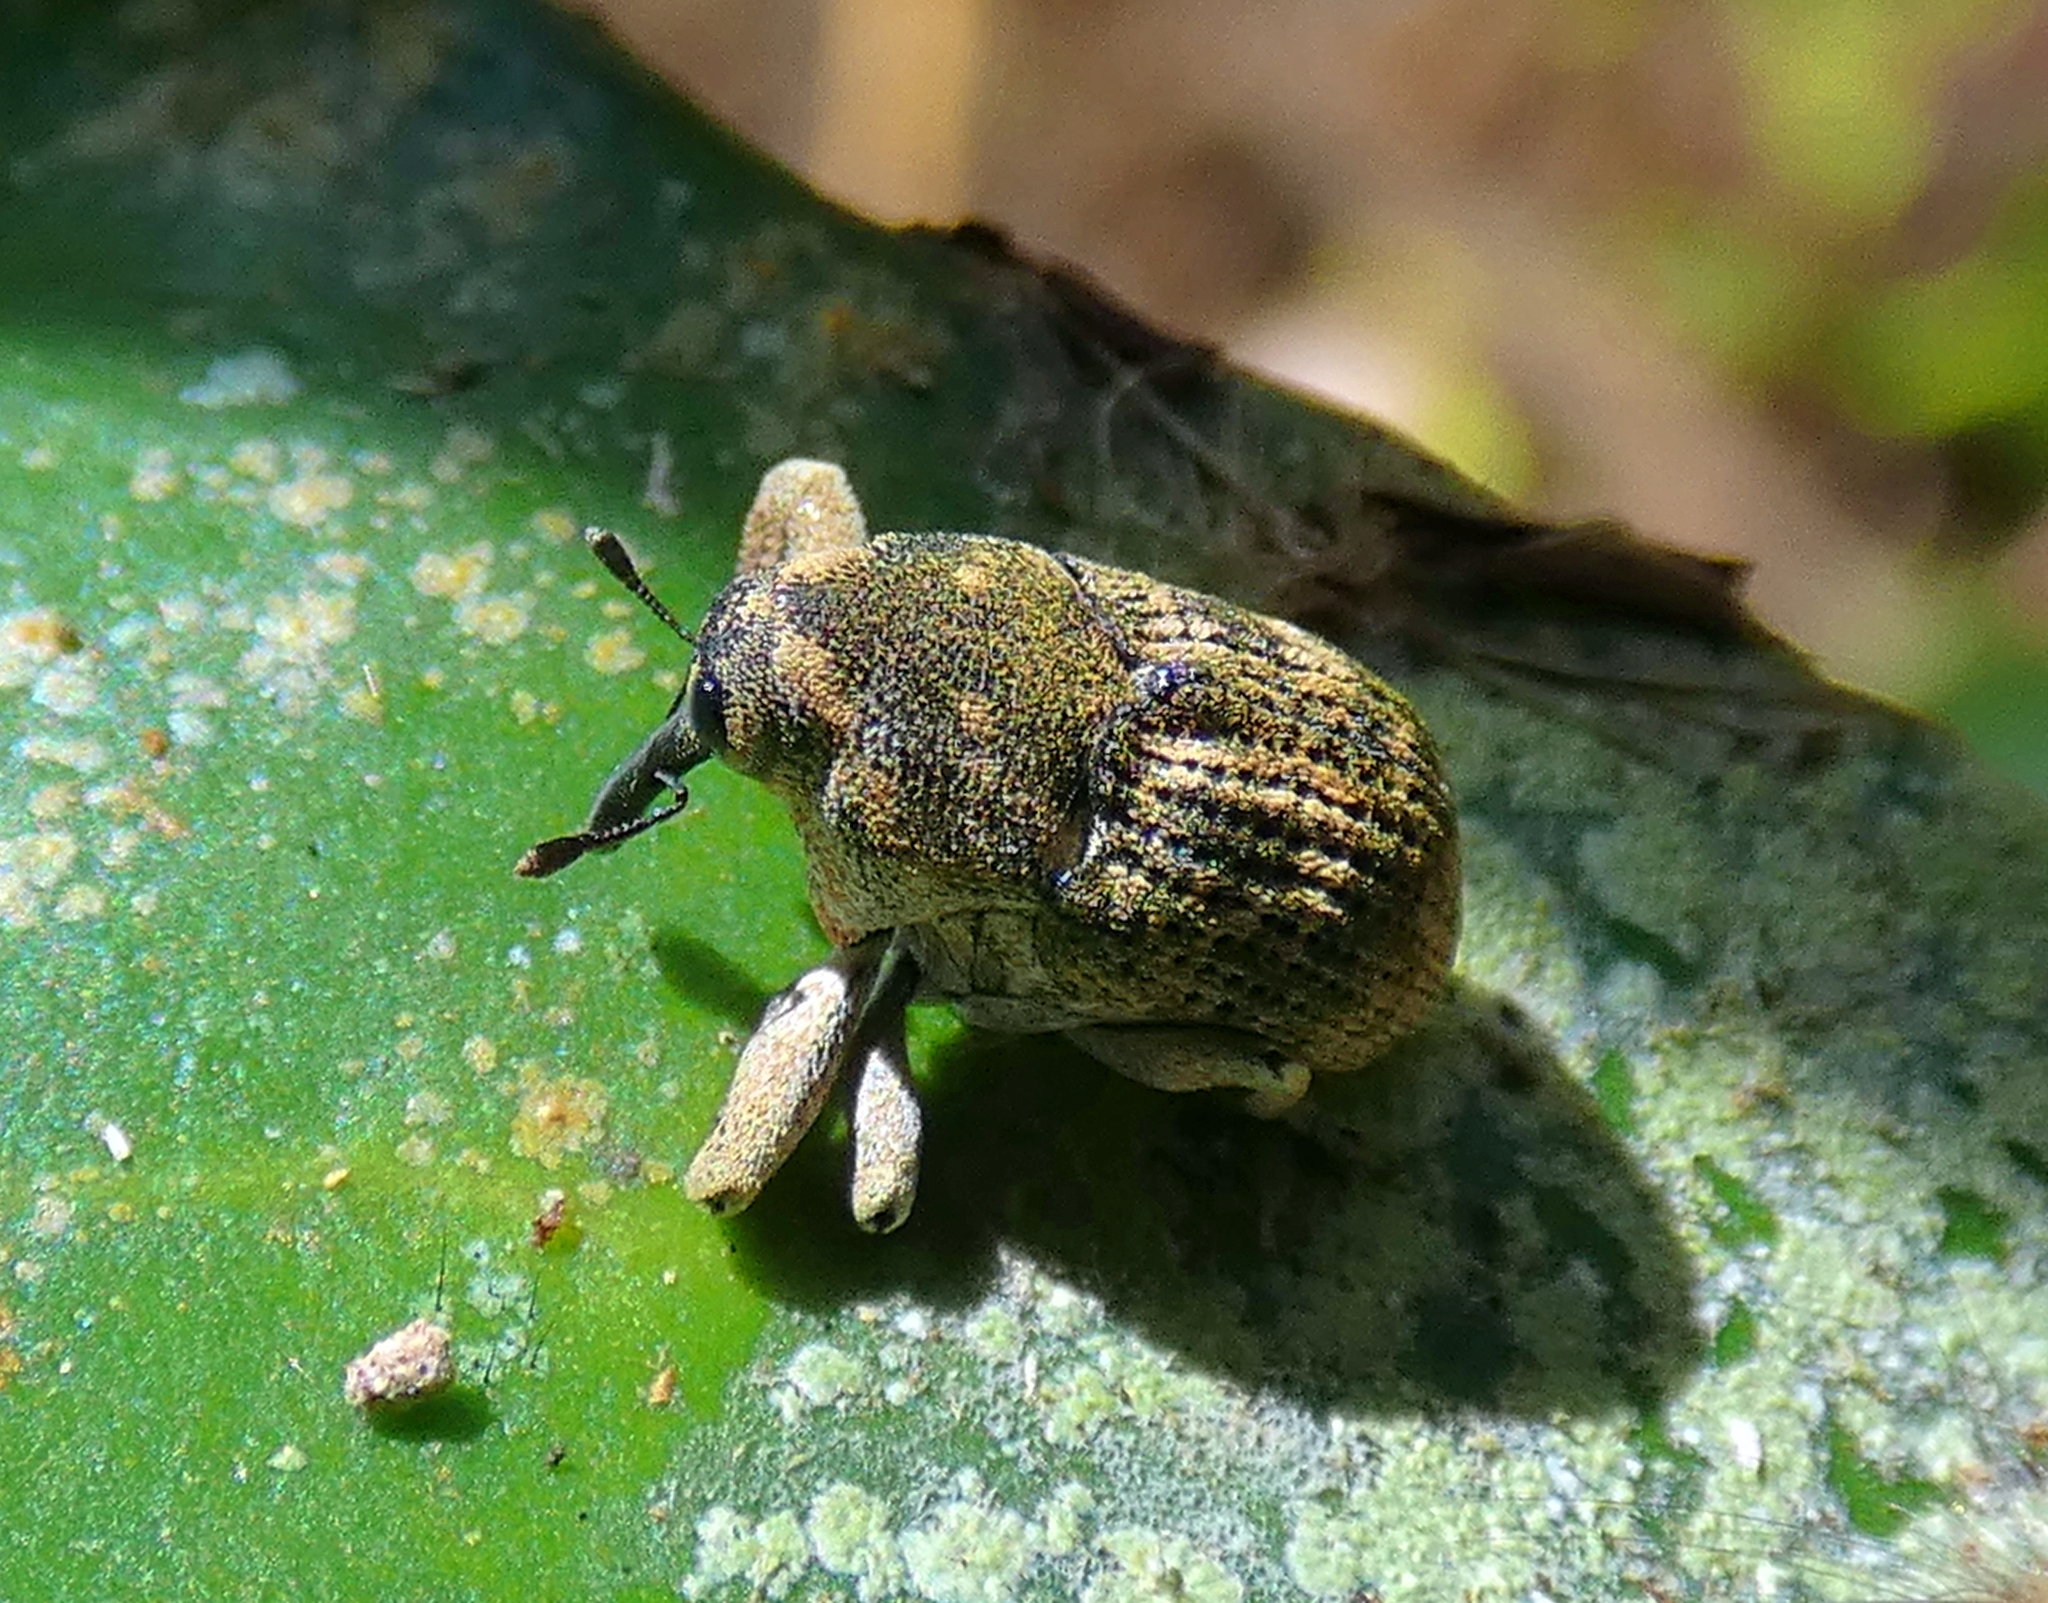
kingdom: Animalia
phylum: Arthropoda
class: Insecta
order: Coleoptera
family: Curculionidae
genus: Eutyrhinus
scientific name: Eutyrhinus meditabundus
